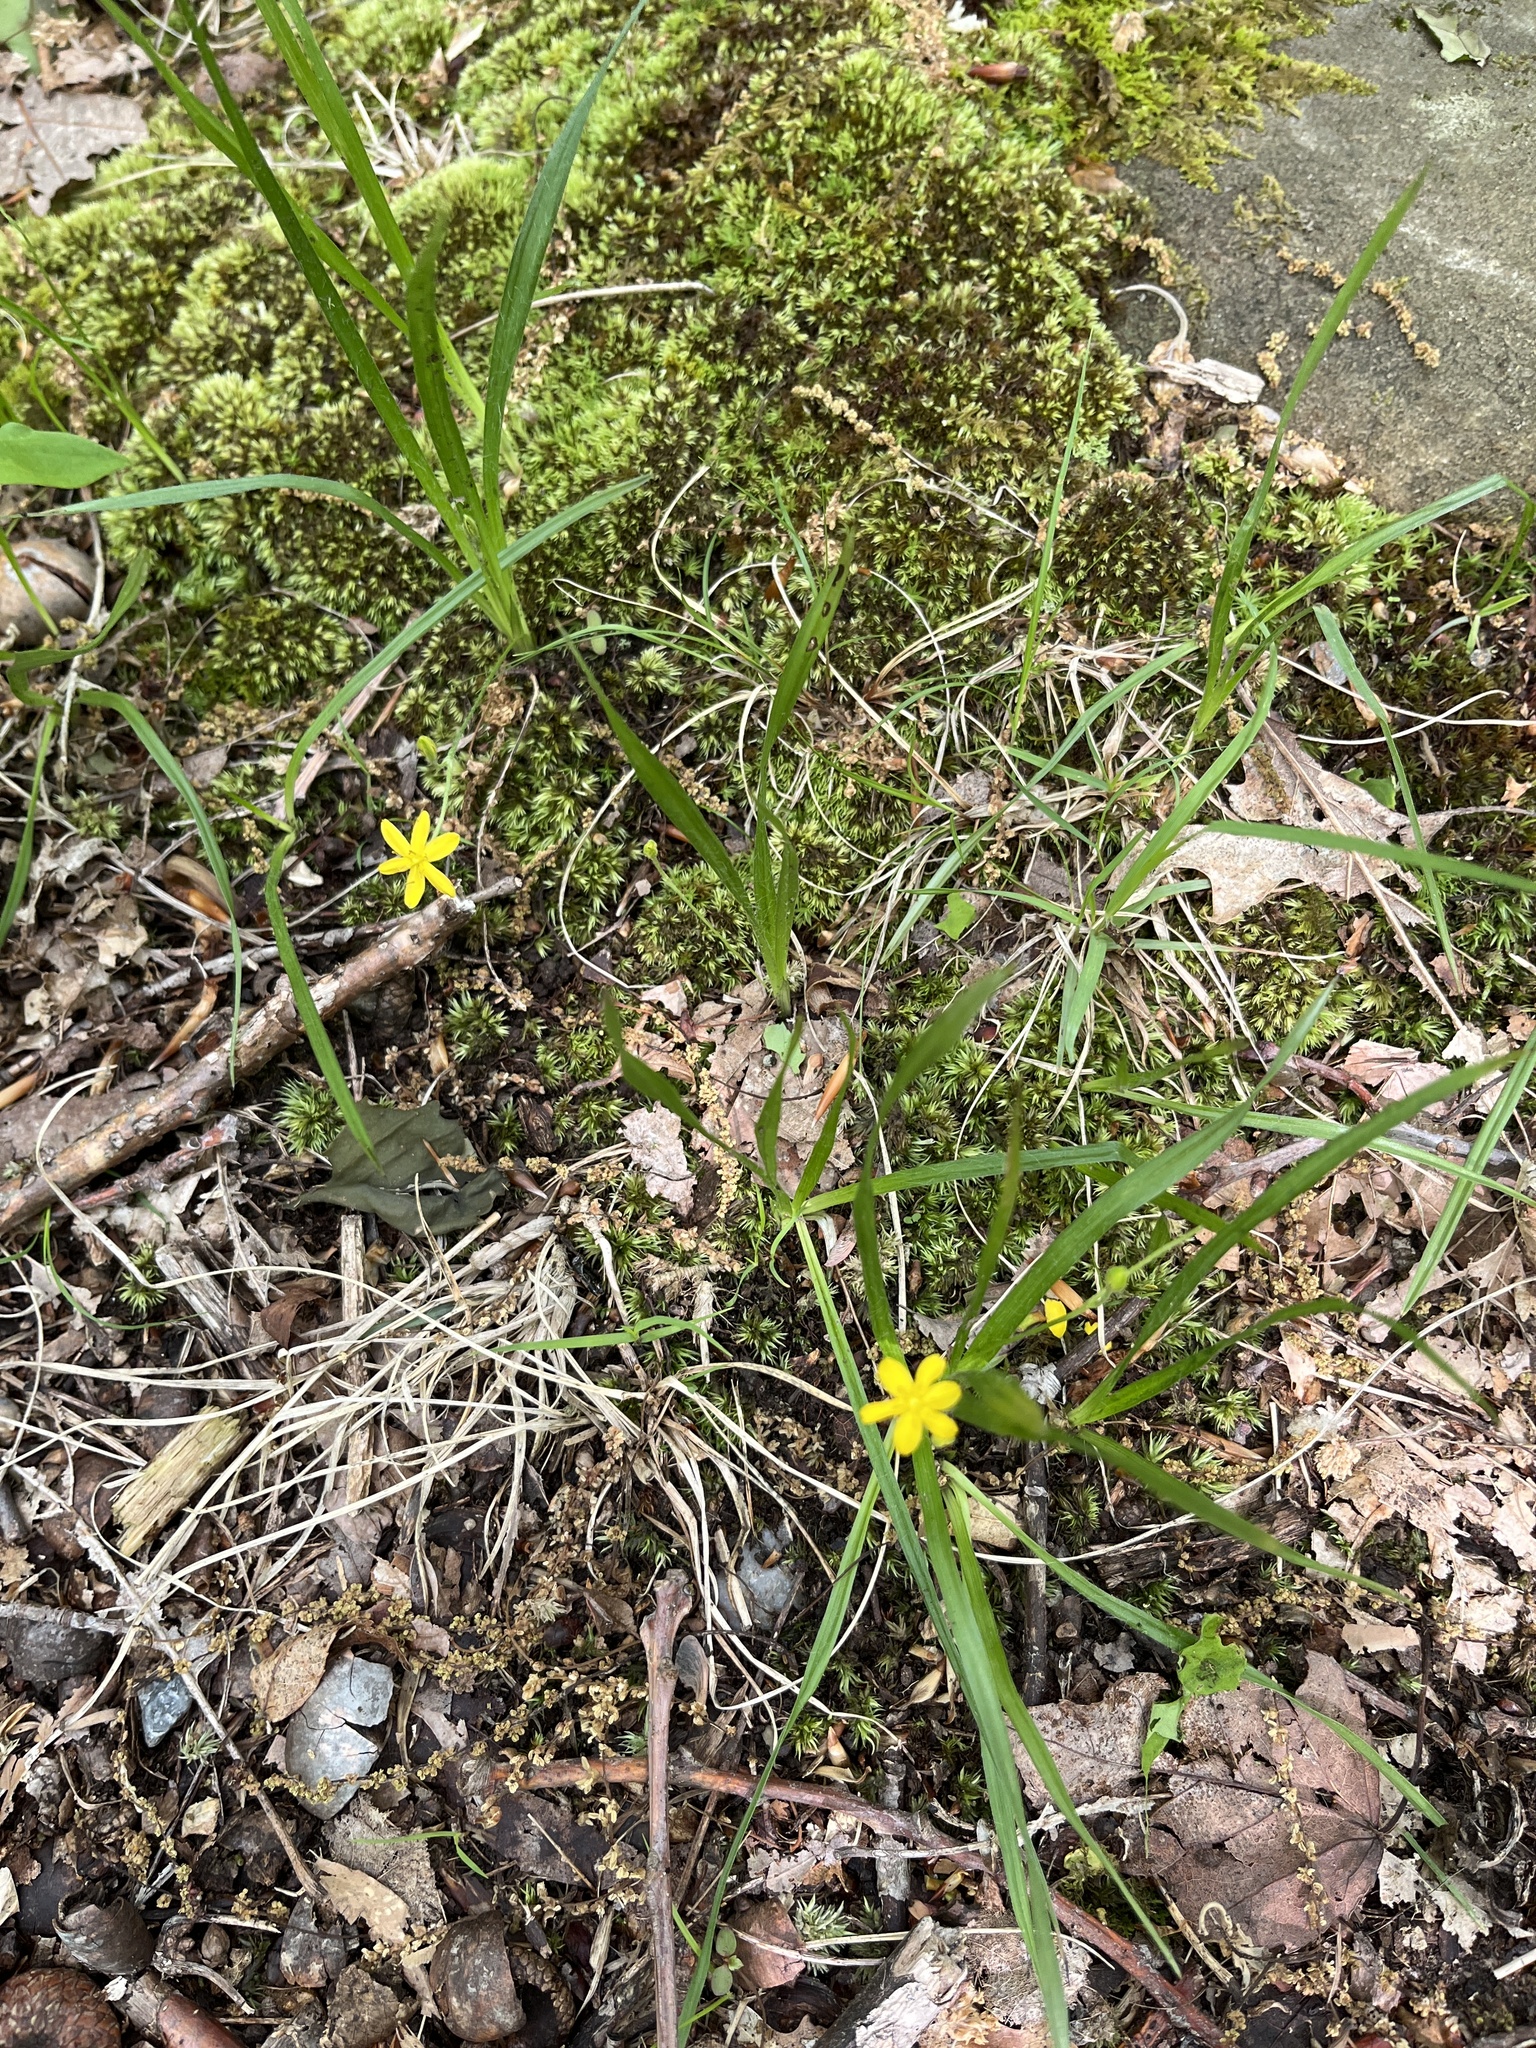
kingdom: Plantae
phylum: Tracheophyta
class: Liliopsida
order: Asparagales
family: Hypoxidaceae
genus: Hypoxis
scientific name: Hypoxis hirsuta
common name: Common goldstar
